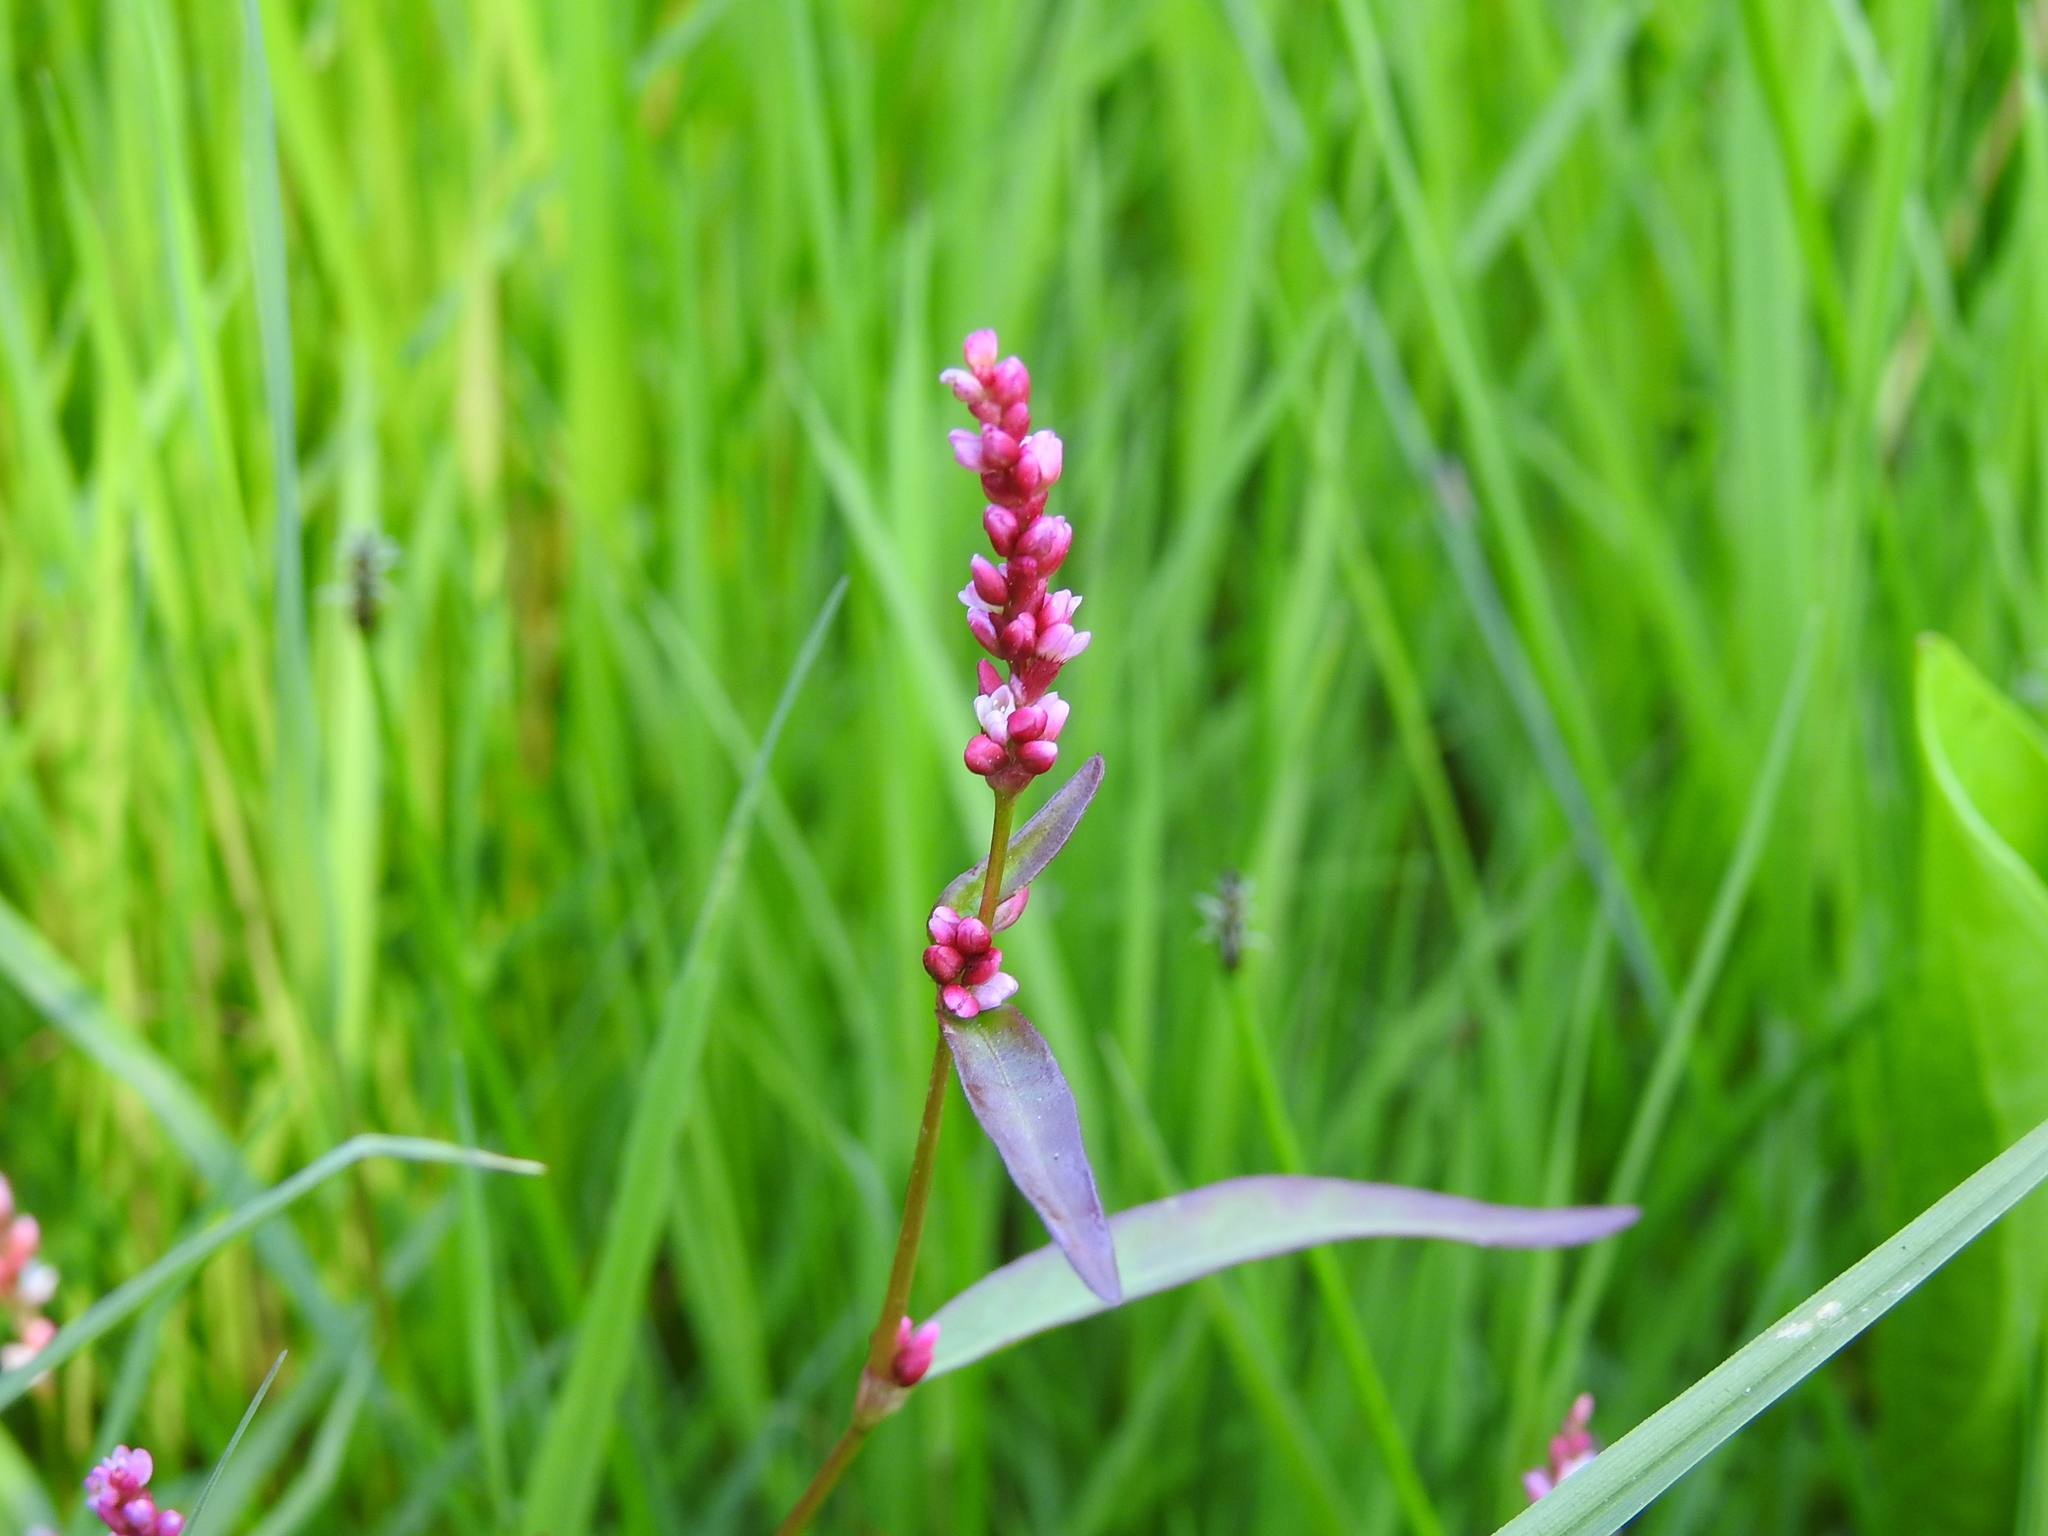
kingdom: Plantae
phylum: Tracheophyta
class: Magnoliopsida
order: Caryophyllales
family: Polygonaceae
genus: Persicaria
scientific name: Persicaria minor
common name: Small water-pepper
